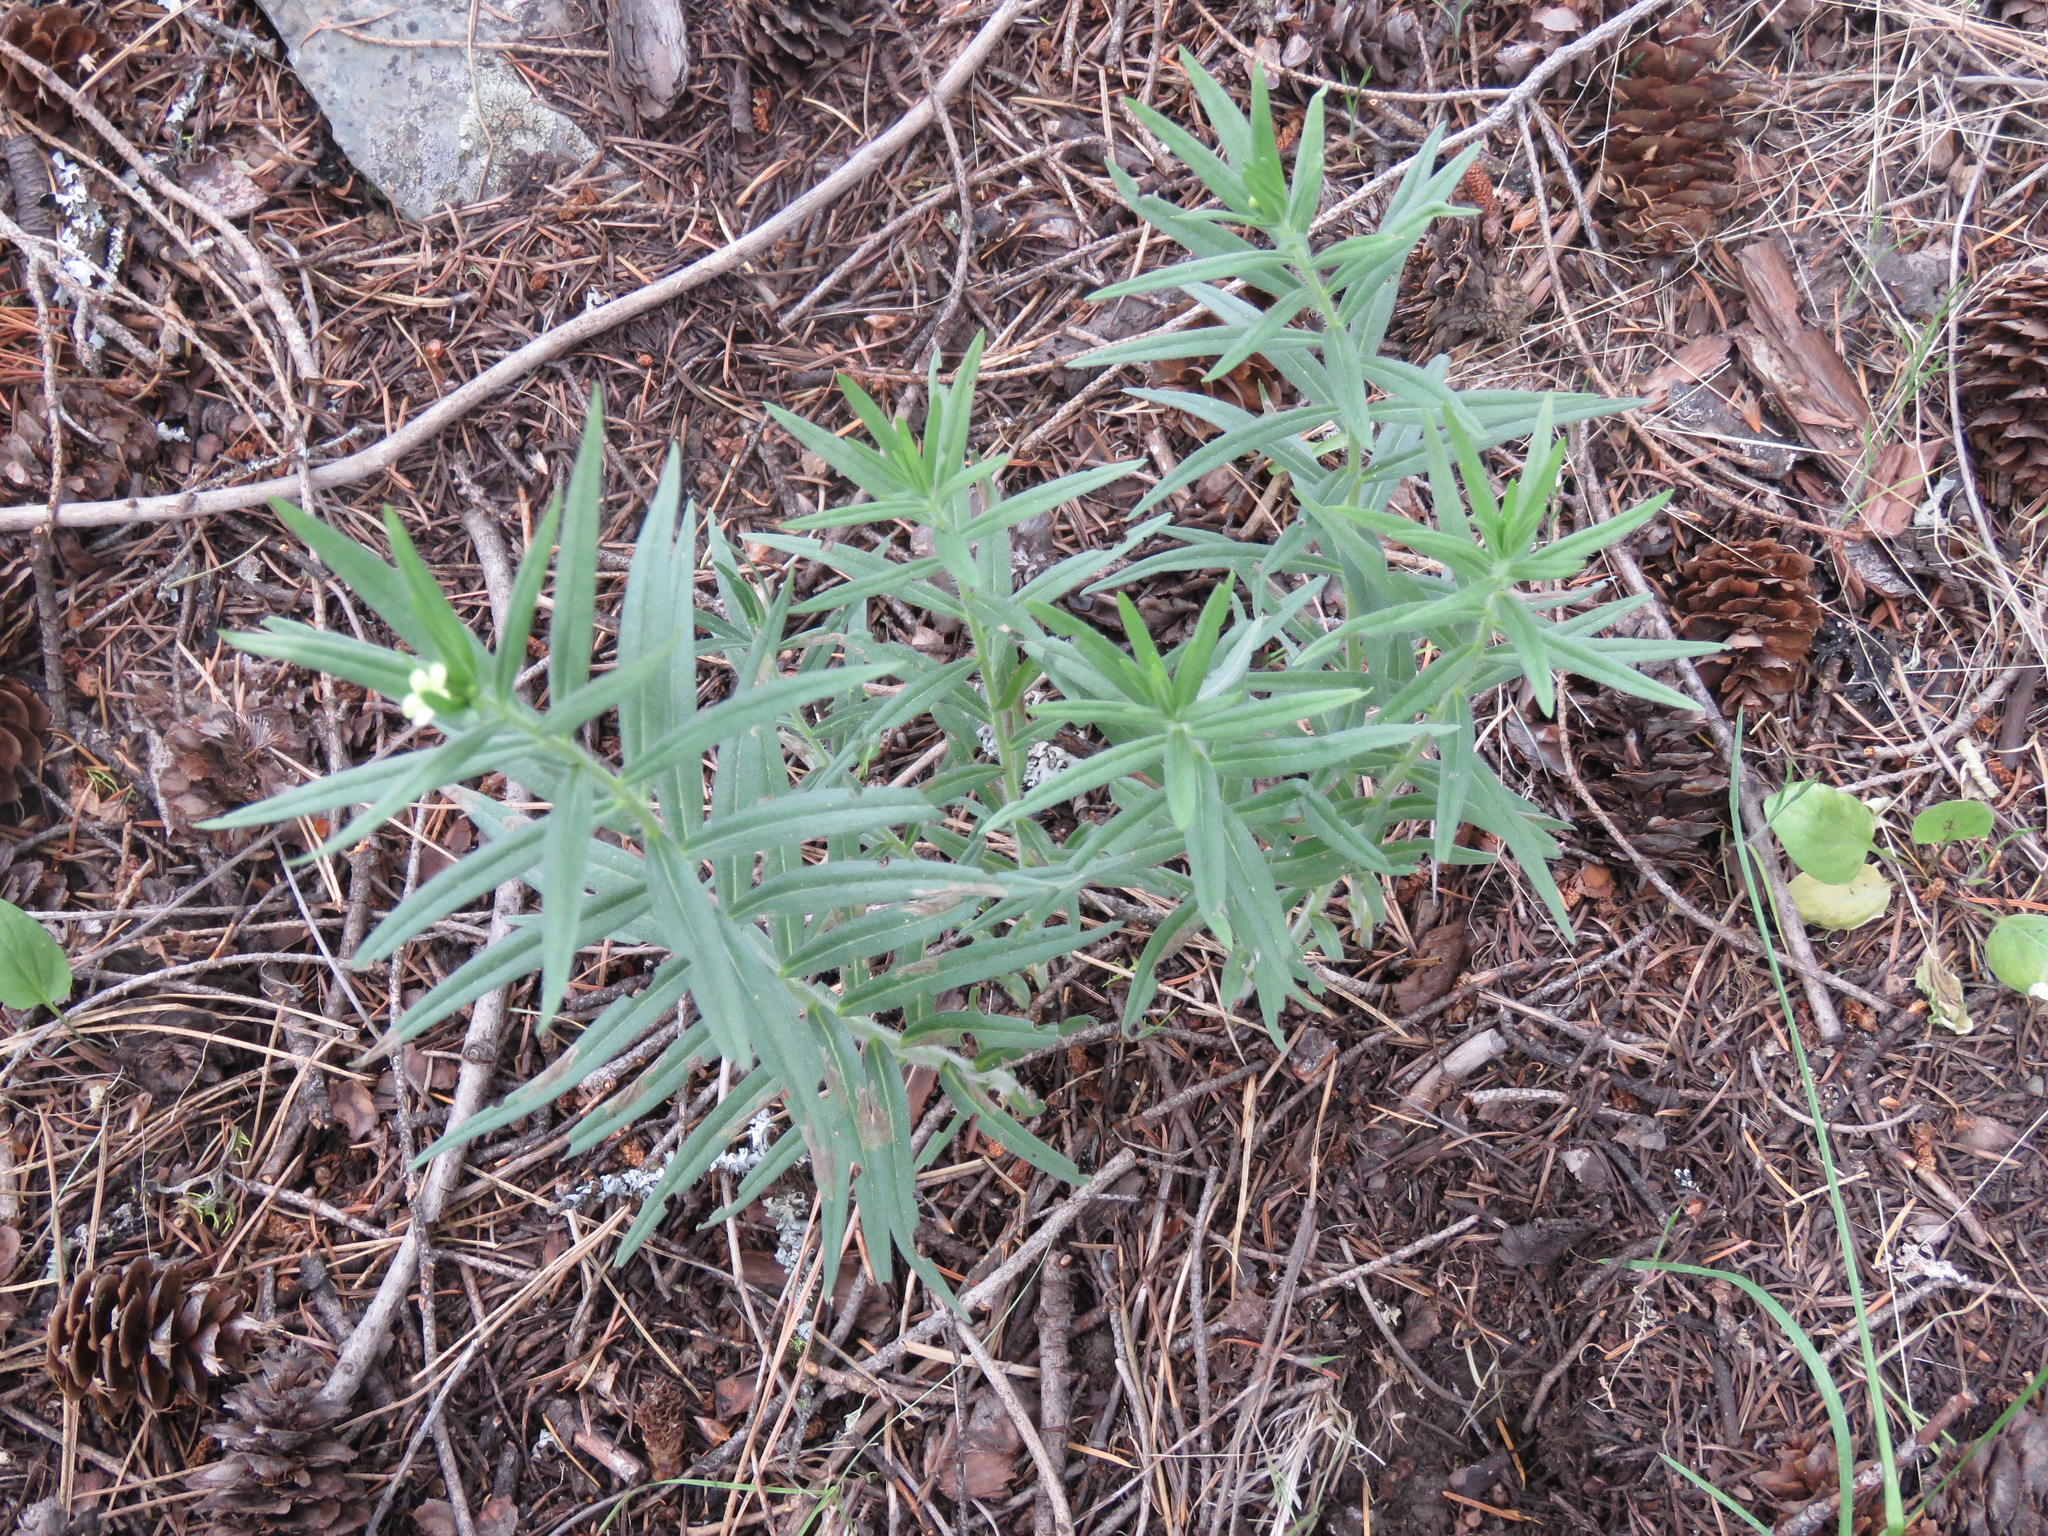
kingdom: Plantae
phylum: Tracheophyta
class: Magnoliopsida
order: Boraginales
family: Boraginaceae
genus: Lithospermum
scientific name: Lithospermum ruderale
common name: Western gromwell
